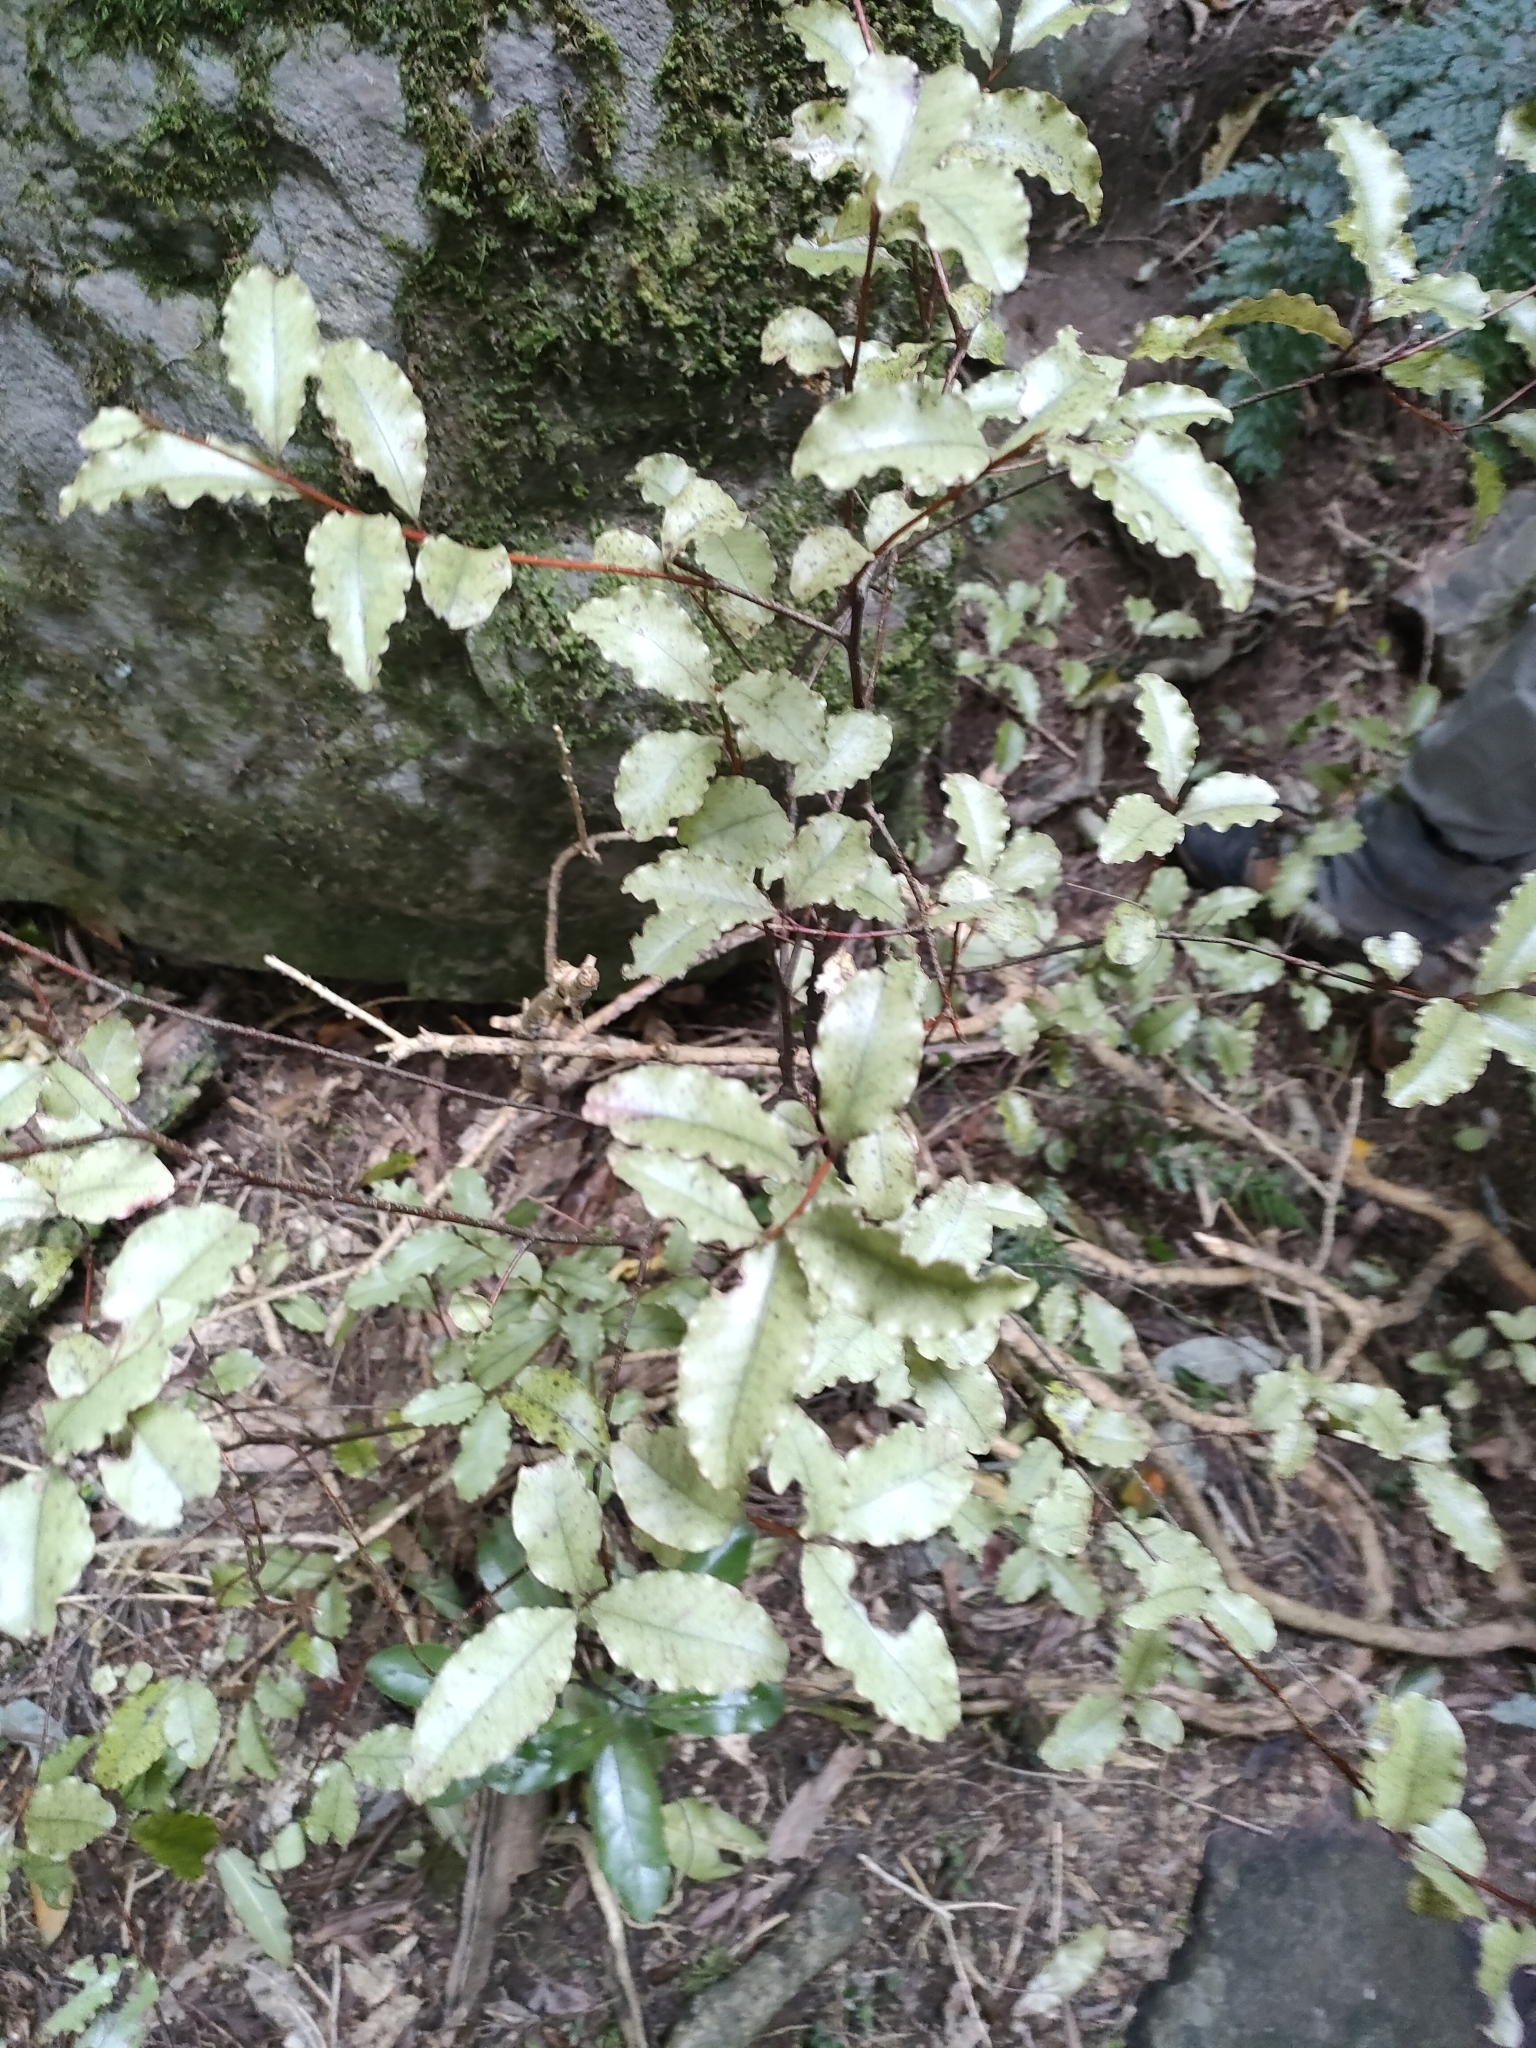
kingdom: Plantae
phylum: Tracheophyta
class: Magnoliopsida
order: Ericales
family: Primulaceae
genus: Myrsine
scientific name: Myrsine australis
